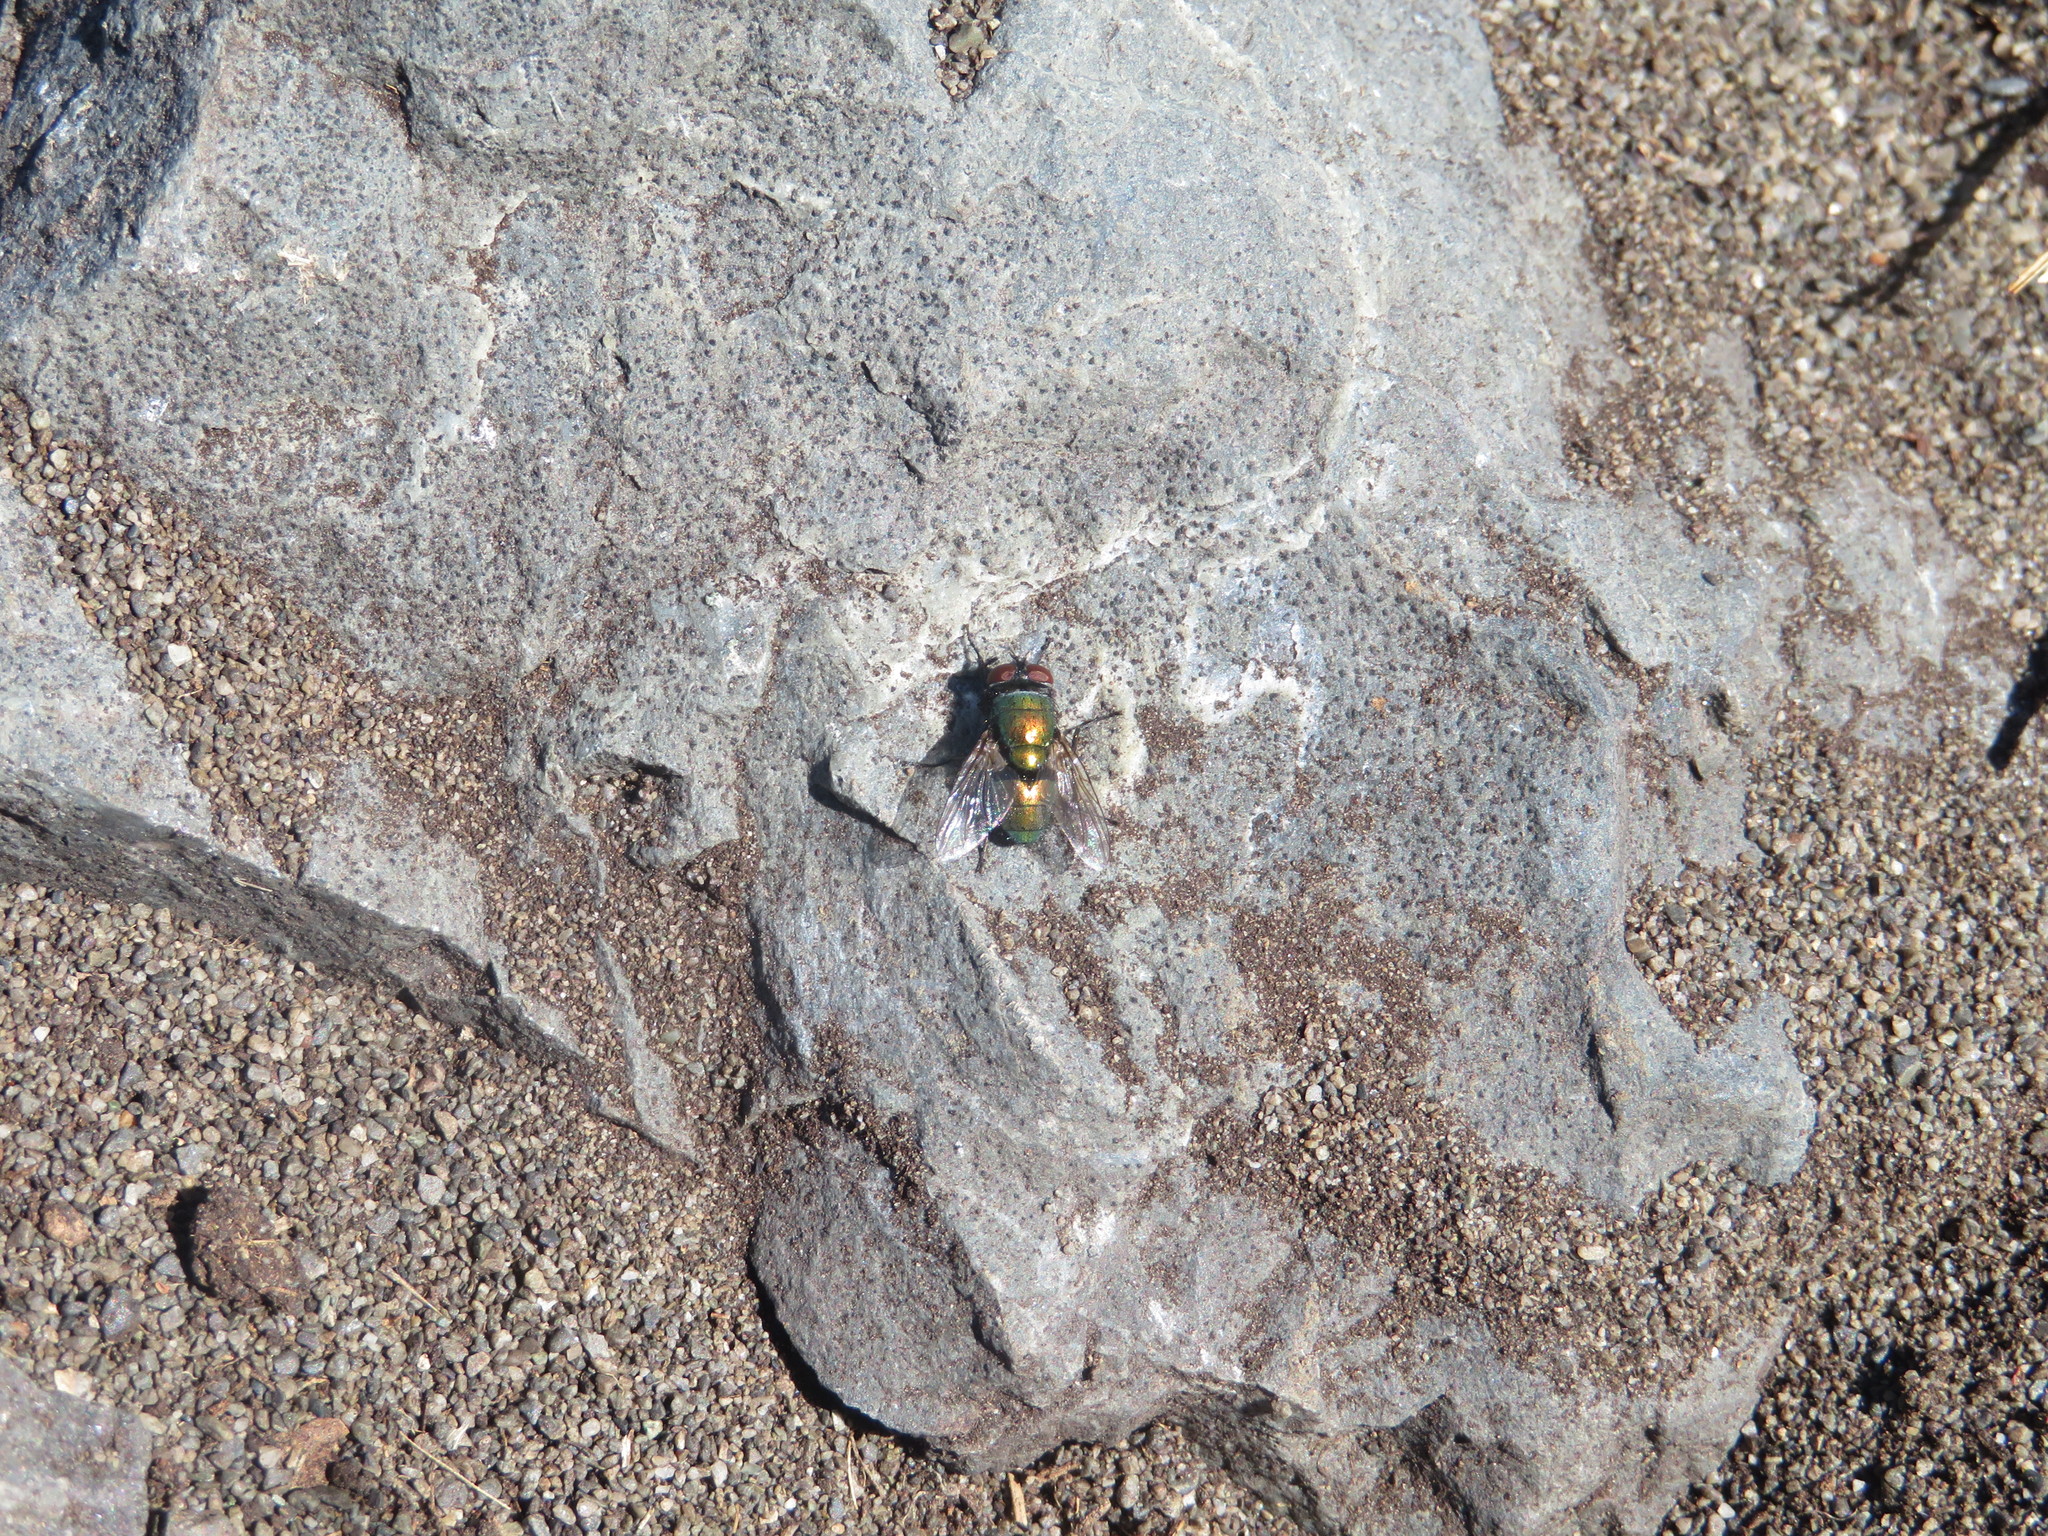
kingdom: Animalia
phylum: Arthropoda
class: Insecta
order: Diptera
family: Calliphoridae
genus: Lucilia
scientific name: Lucilia sericata
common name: Blow fly
